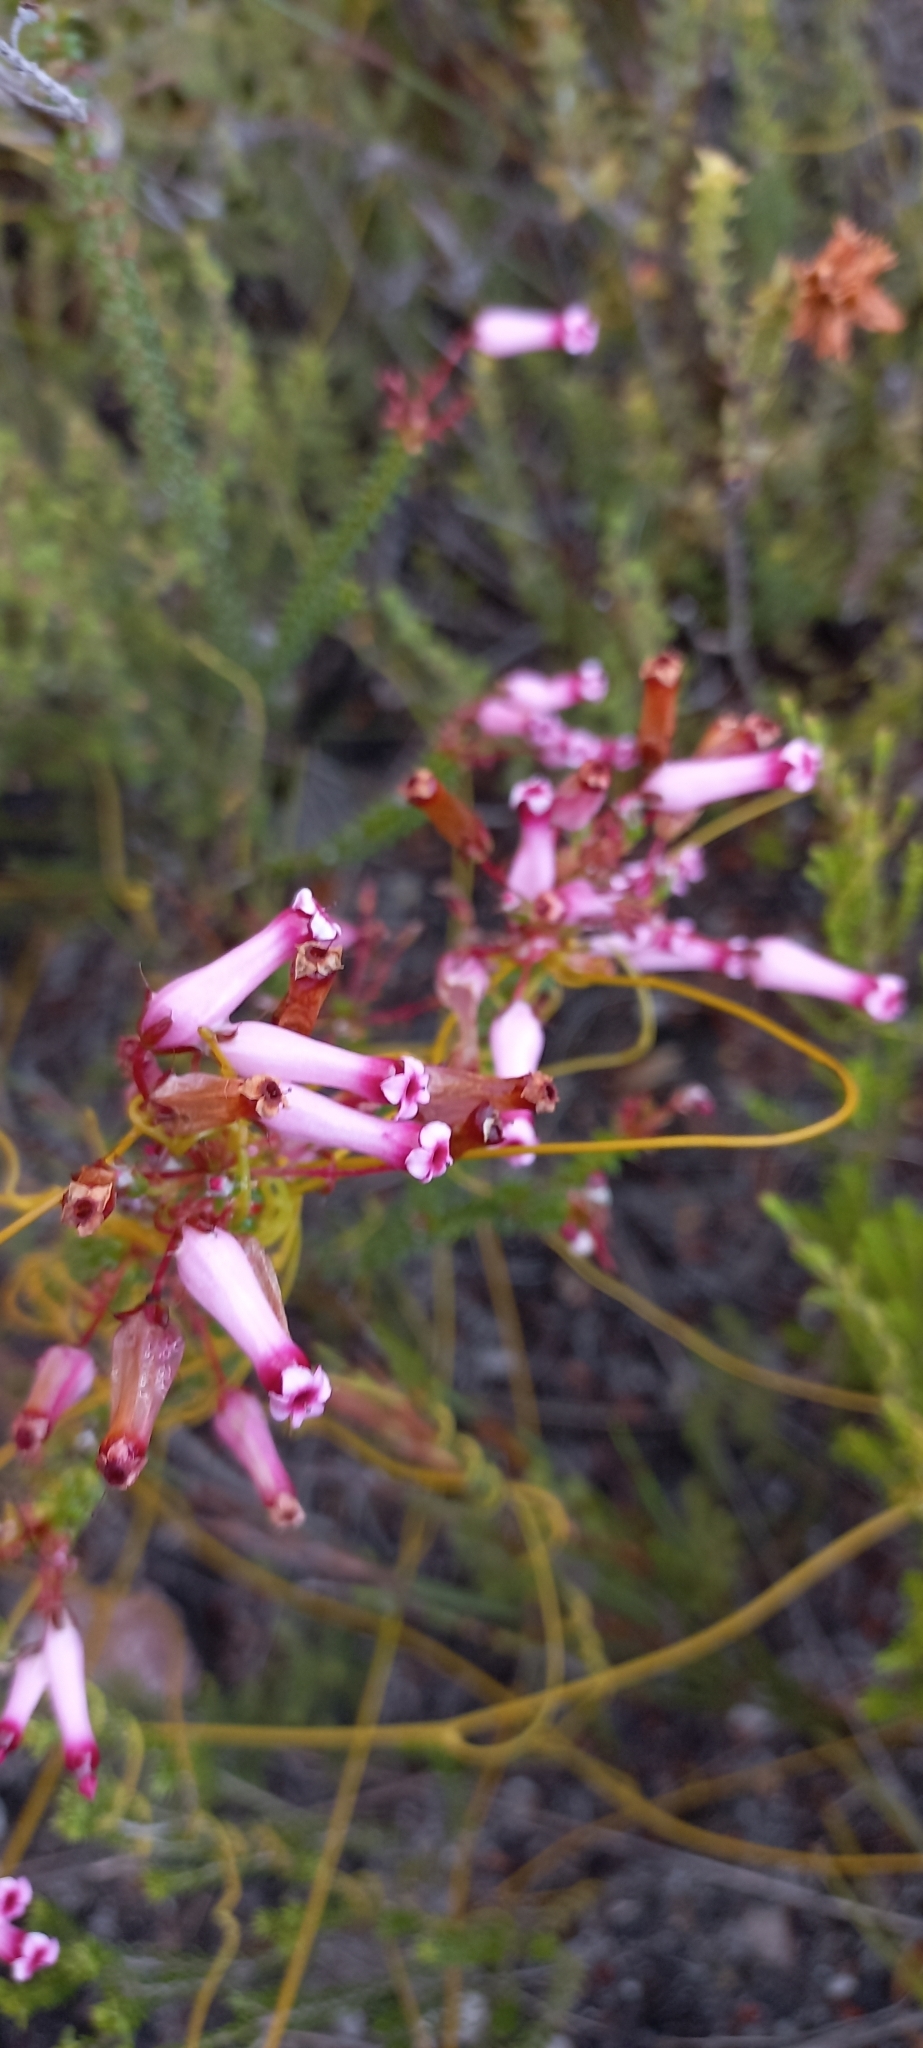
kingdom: Plantae
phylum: Tracheophyta
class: Magnoliopsida
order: Ericales
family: Ericaceae
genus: Erica
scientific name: Erica retorta
